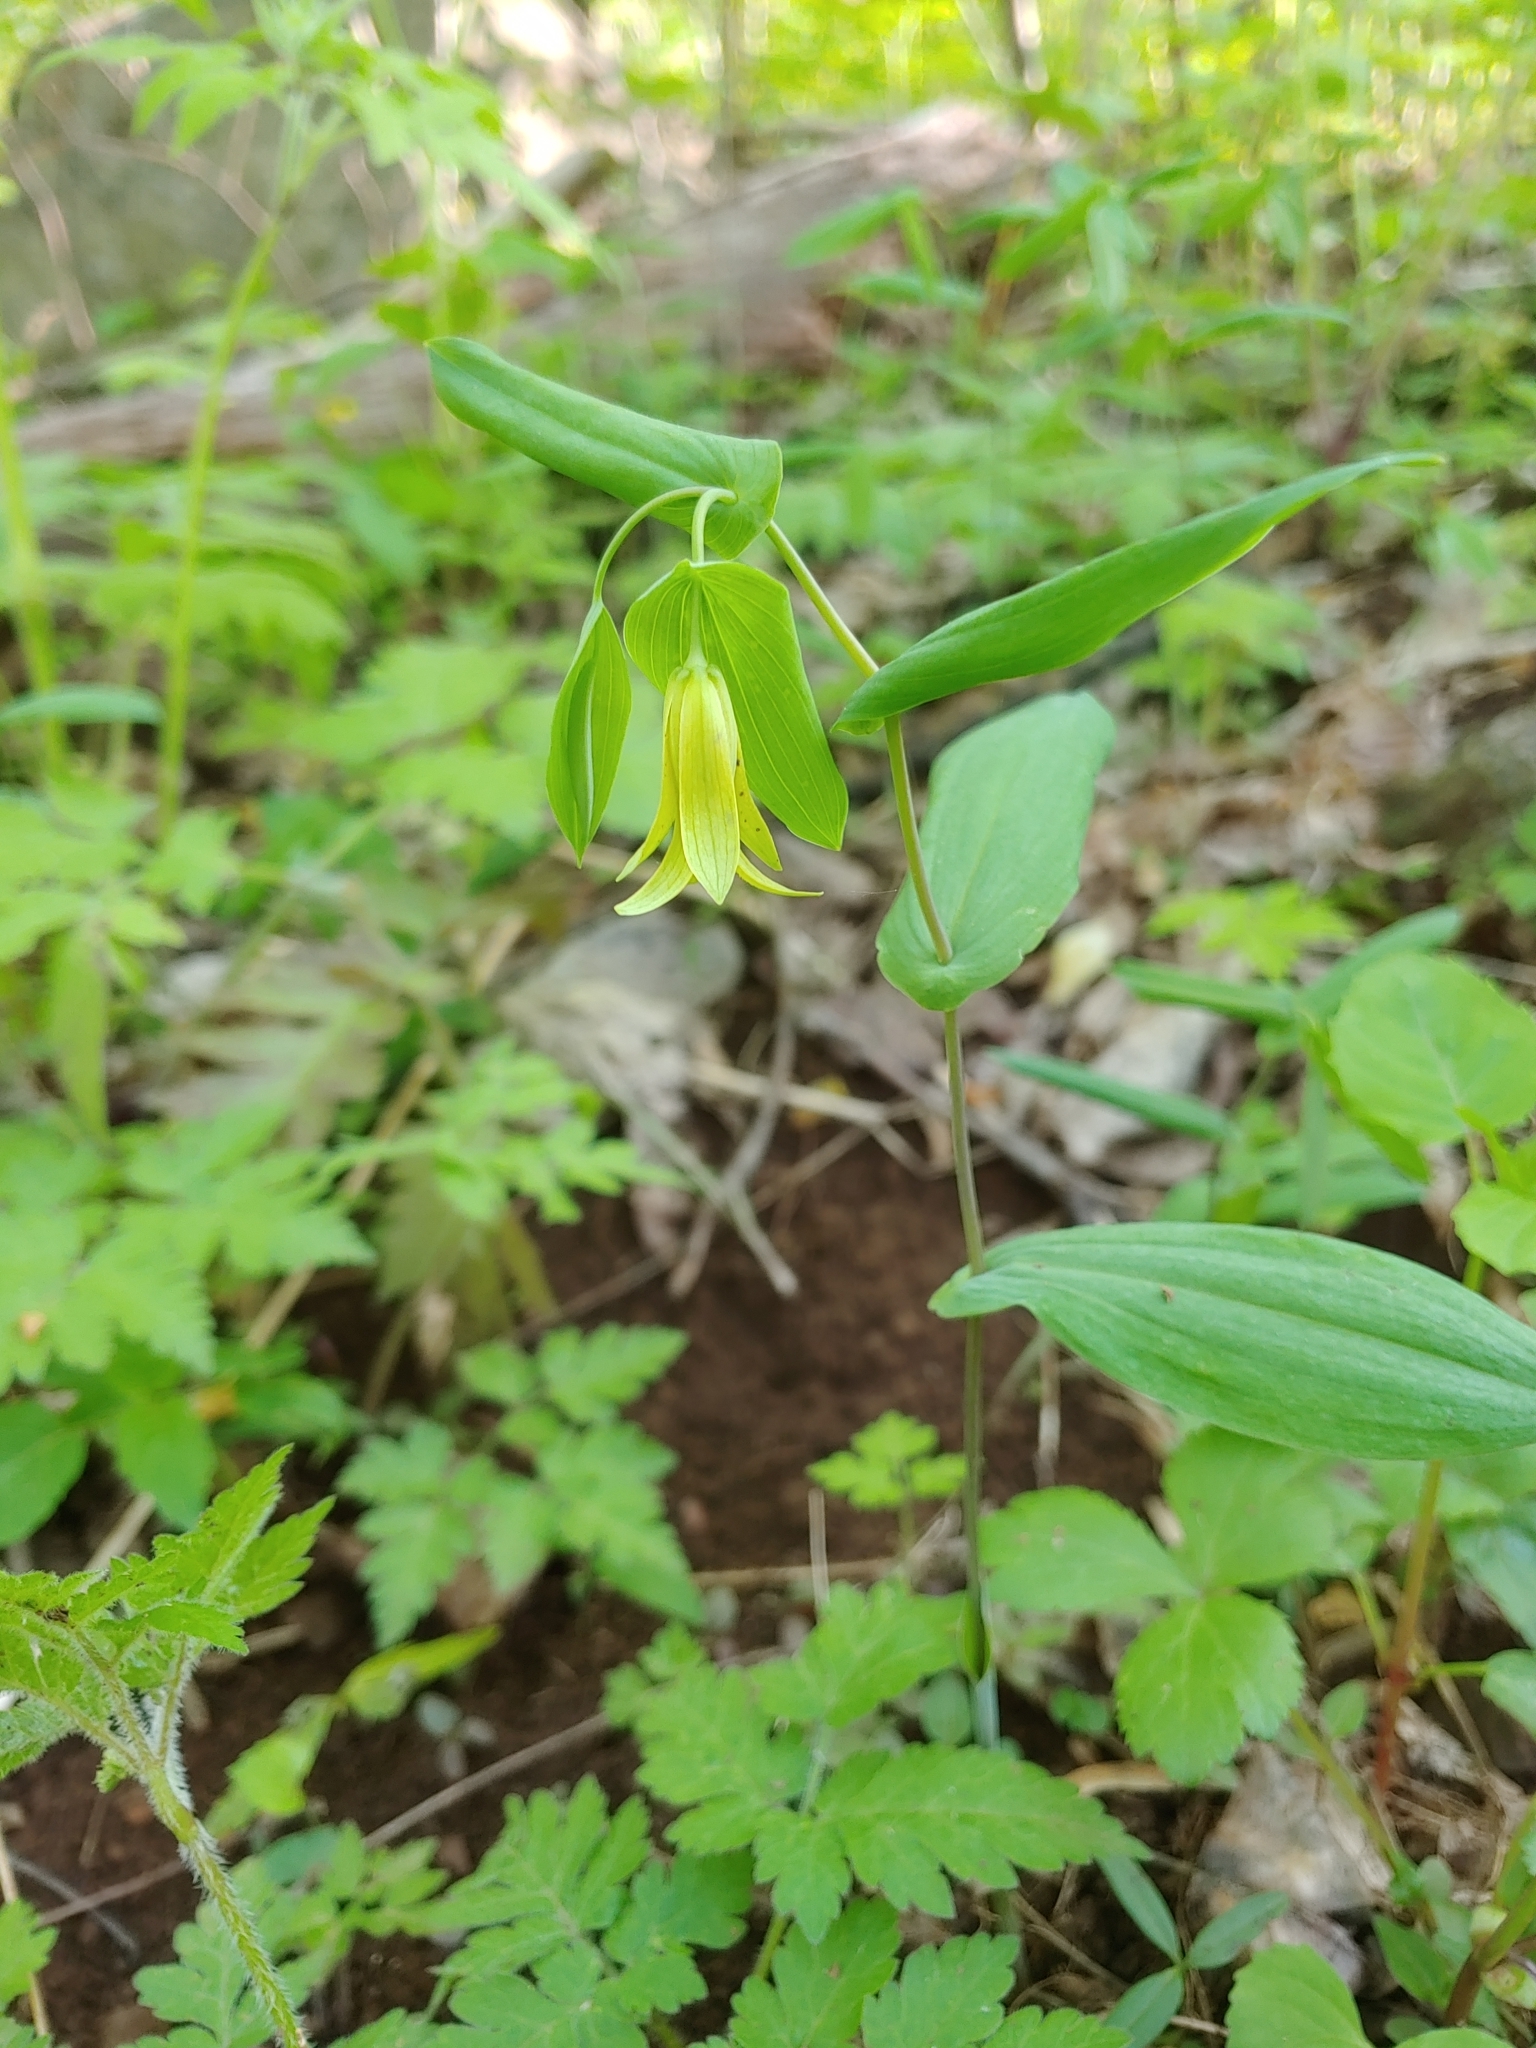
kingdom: Plantae
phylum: Tracheophyta
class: Liliopsida
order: Liliales
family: Colchicaceae
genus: Uvularia
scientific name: Uvularia perfoliata
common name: Perfoliate bellwort
